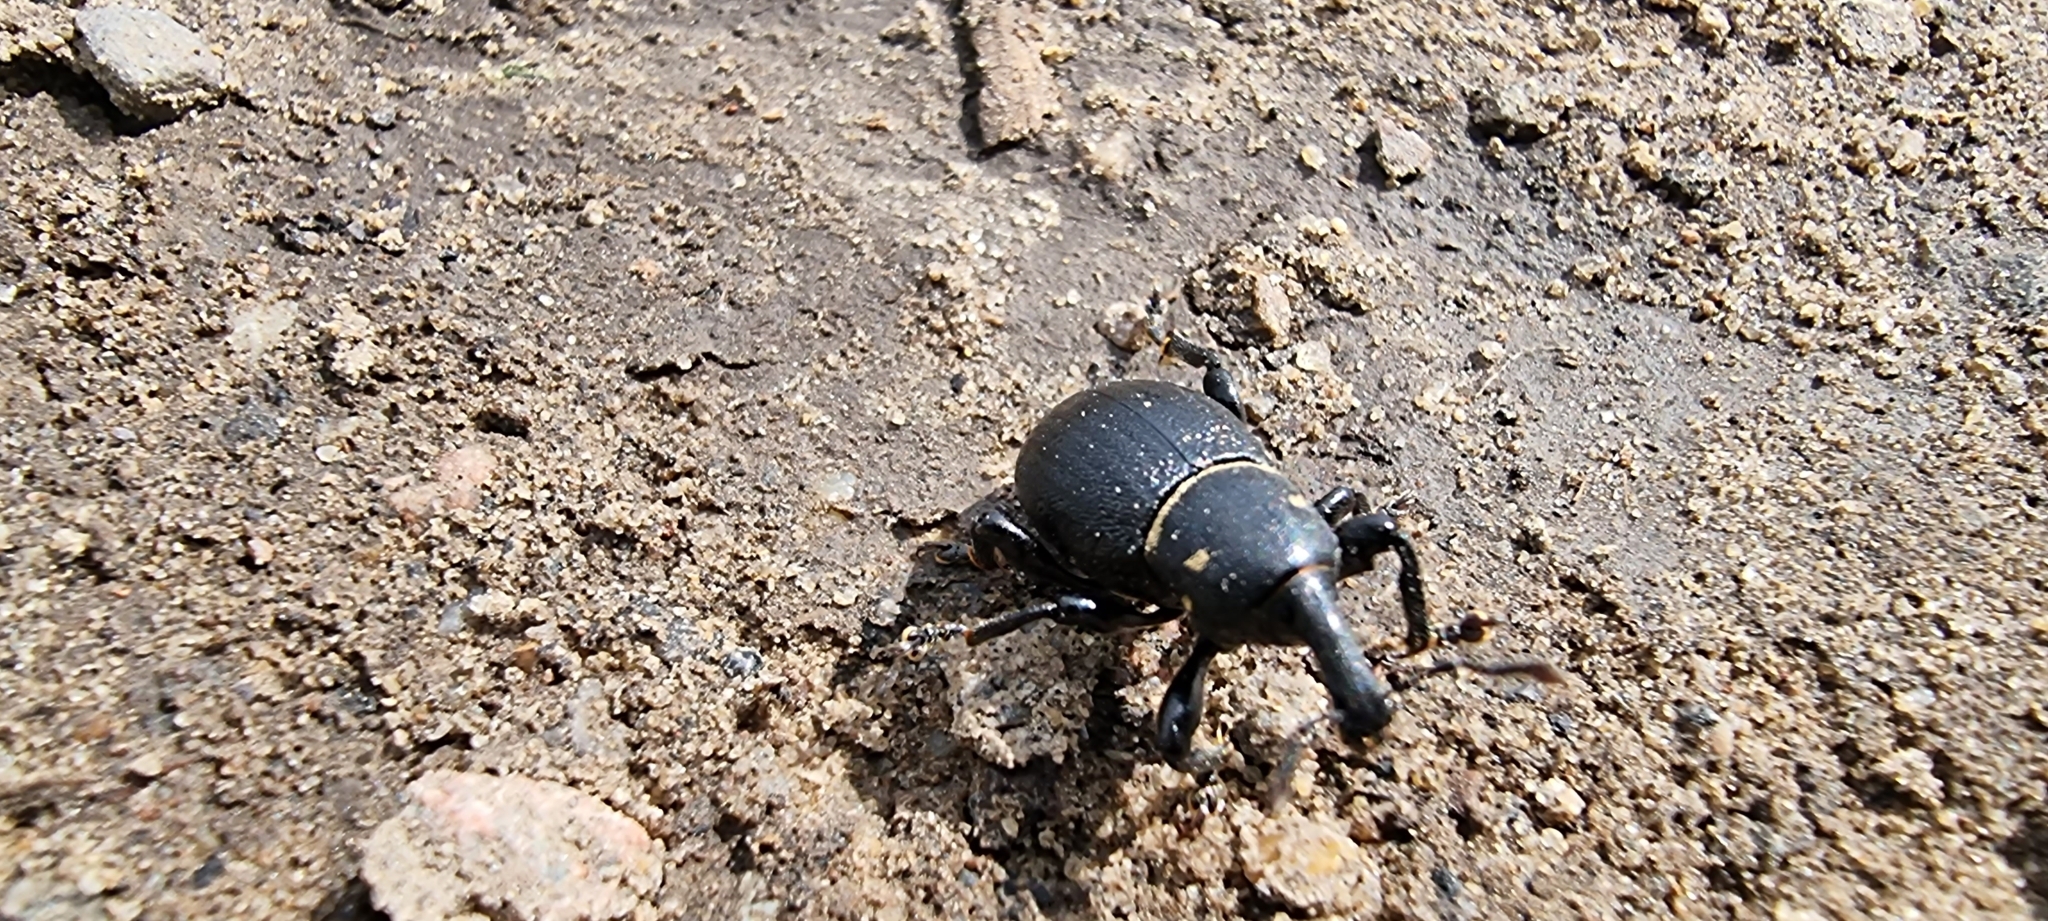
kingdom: Animalia
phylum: Arthropoda
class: Insecta
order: Coleoptera
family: Curculionidae
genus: Liparus
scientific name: Liparus coronatus
